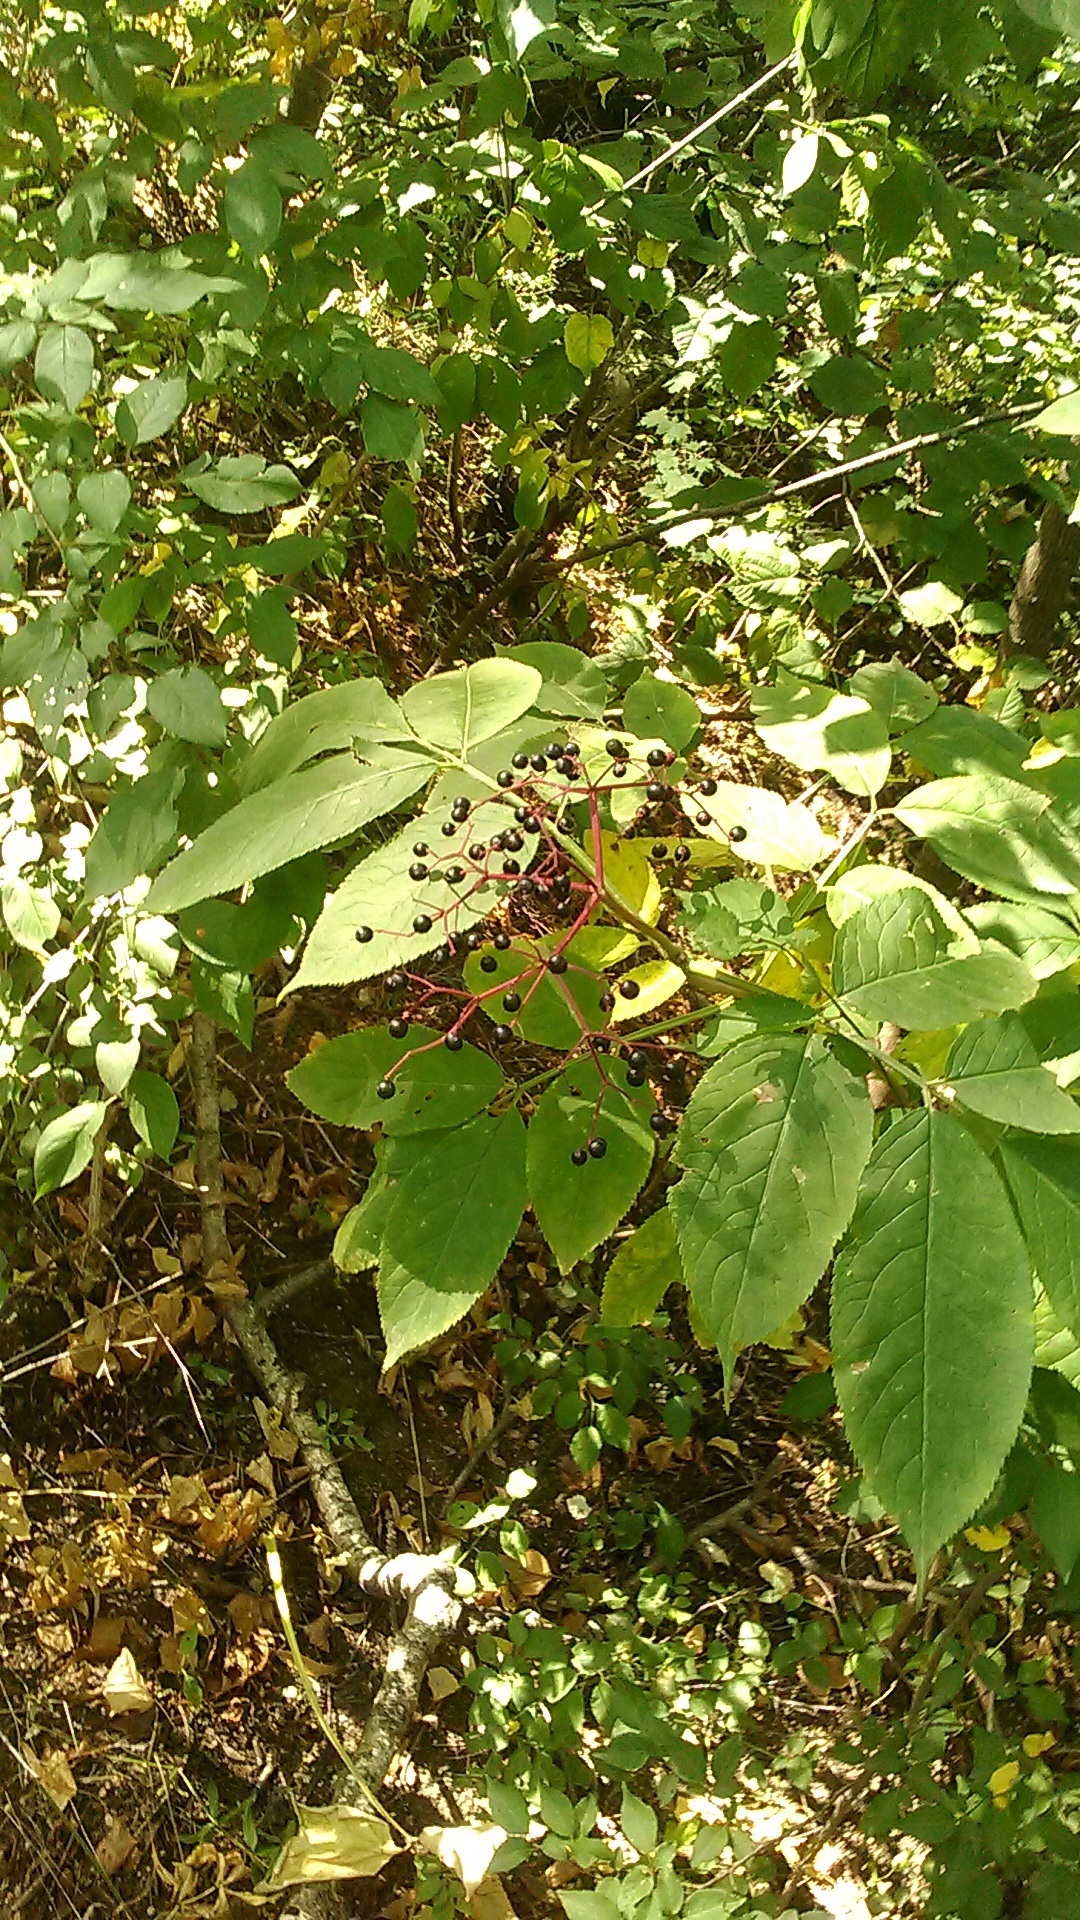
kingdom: Plantae
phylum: Tracheophyta
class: Magnoliopsida
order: Dipsacales
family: Viburnaceae
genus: Sambucus
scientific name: Sambucus nigra
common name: Elder
